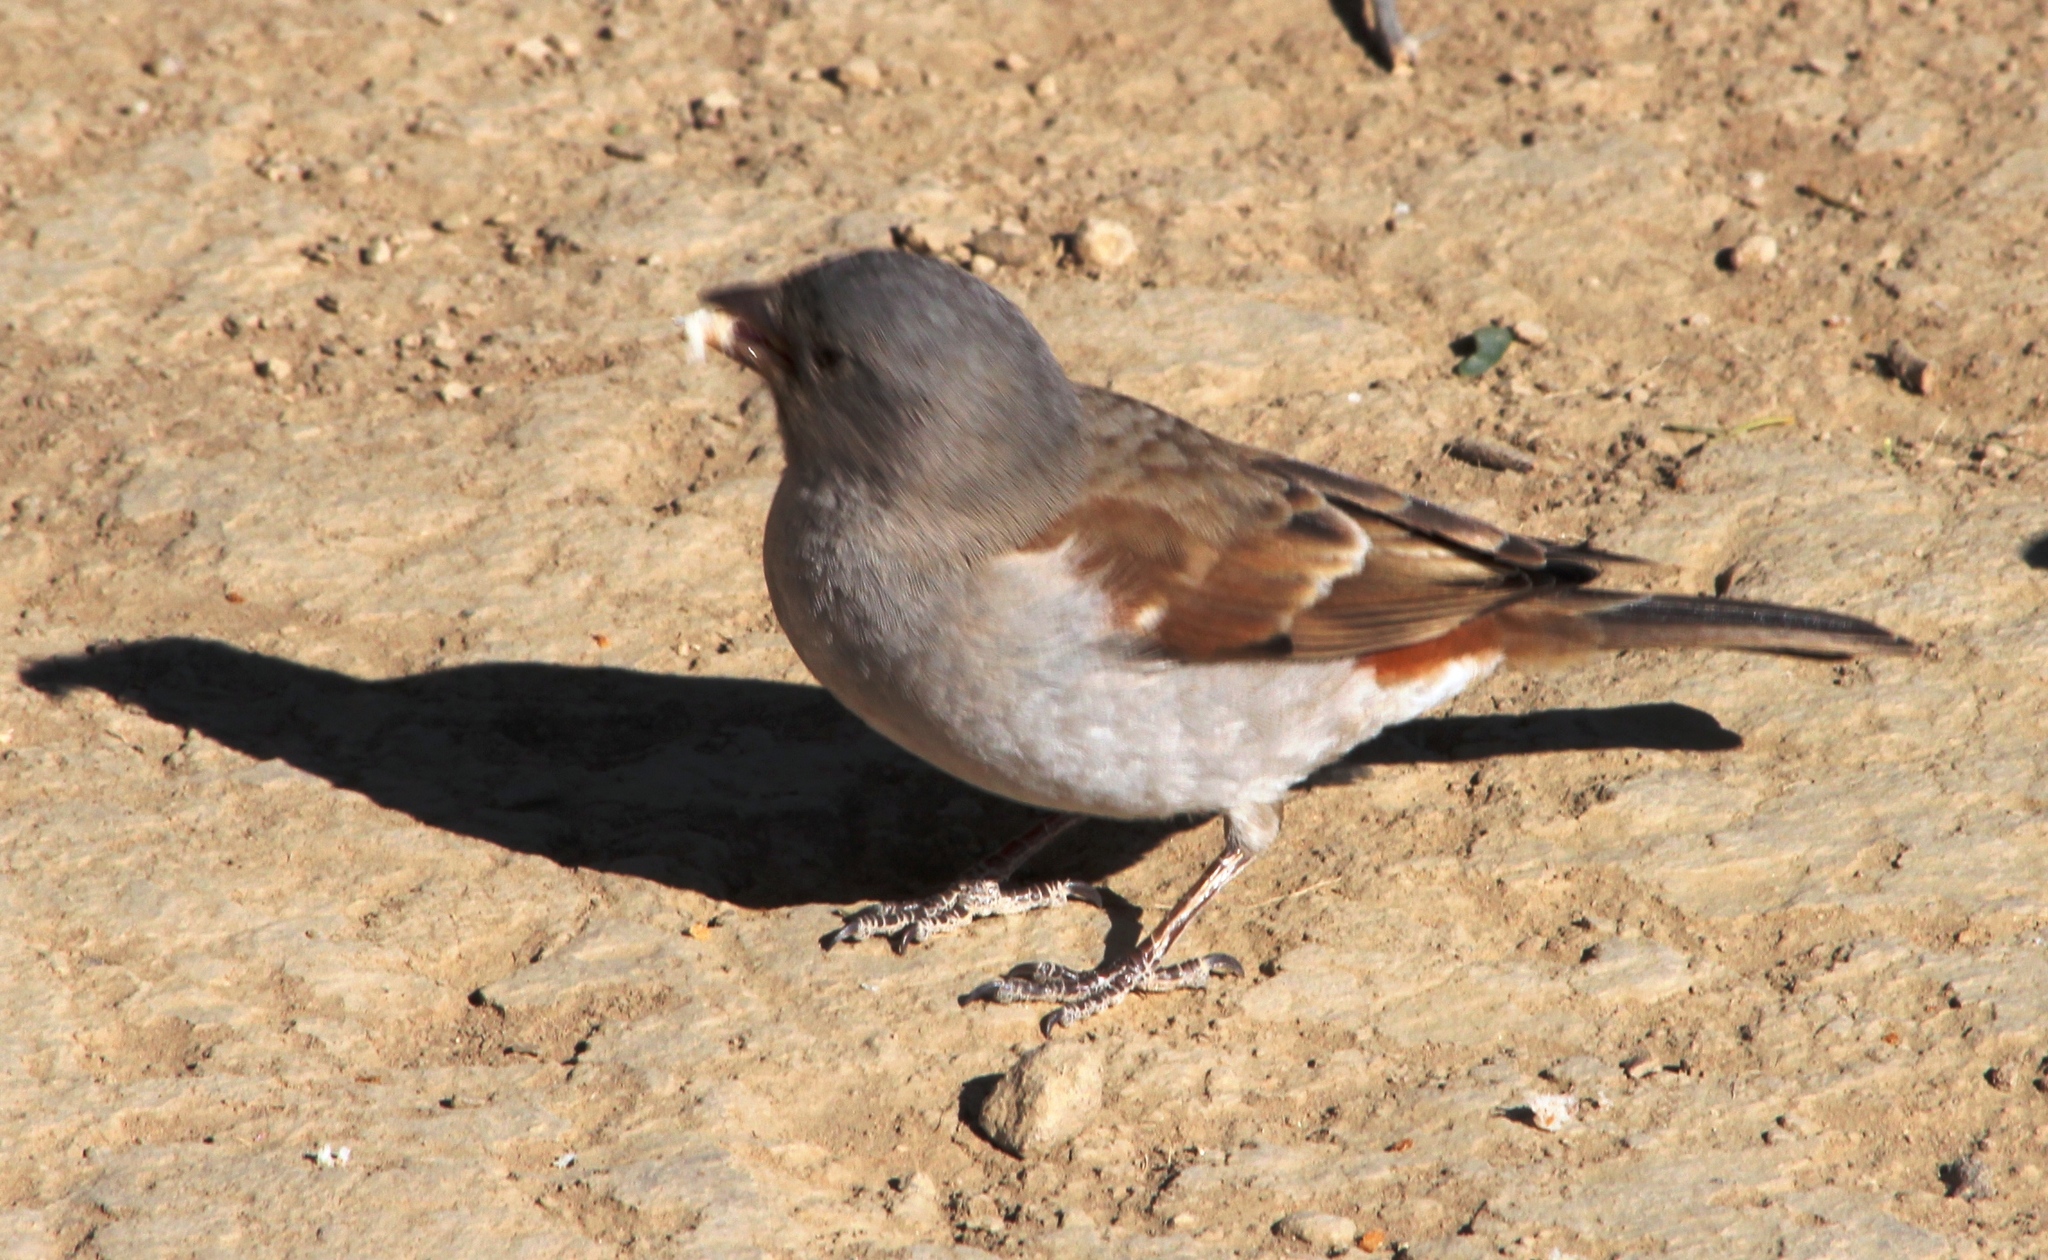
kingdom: Animalia
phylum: Chordata
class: Aves
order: Passeriformes
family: Passeridae
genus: Passer
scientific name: Passer diffusus
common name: Southern grey-headed sparrow
